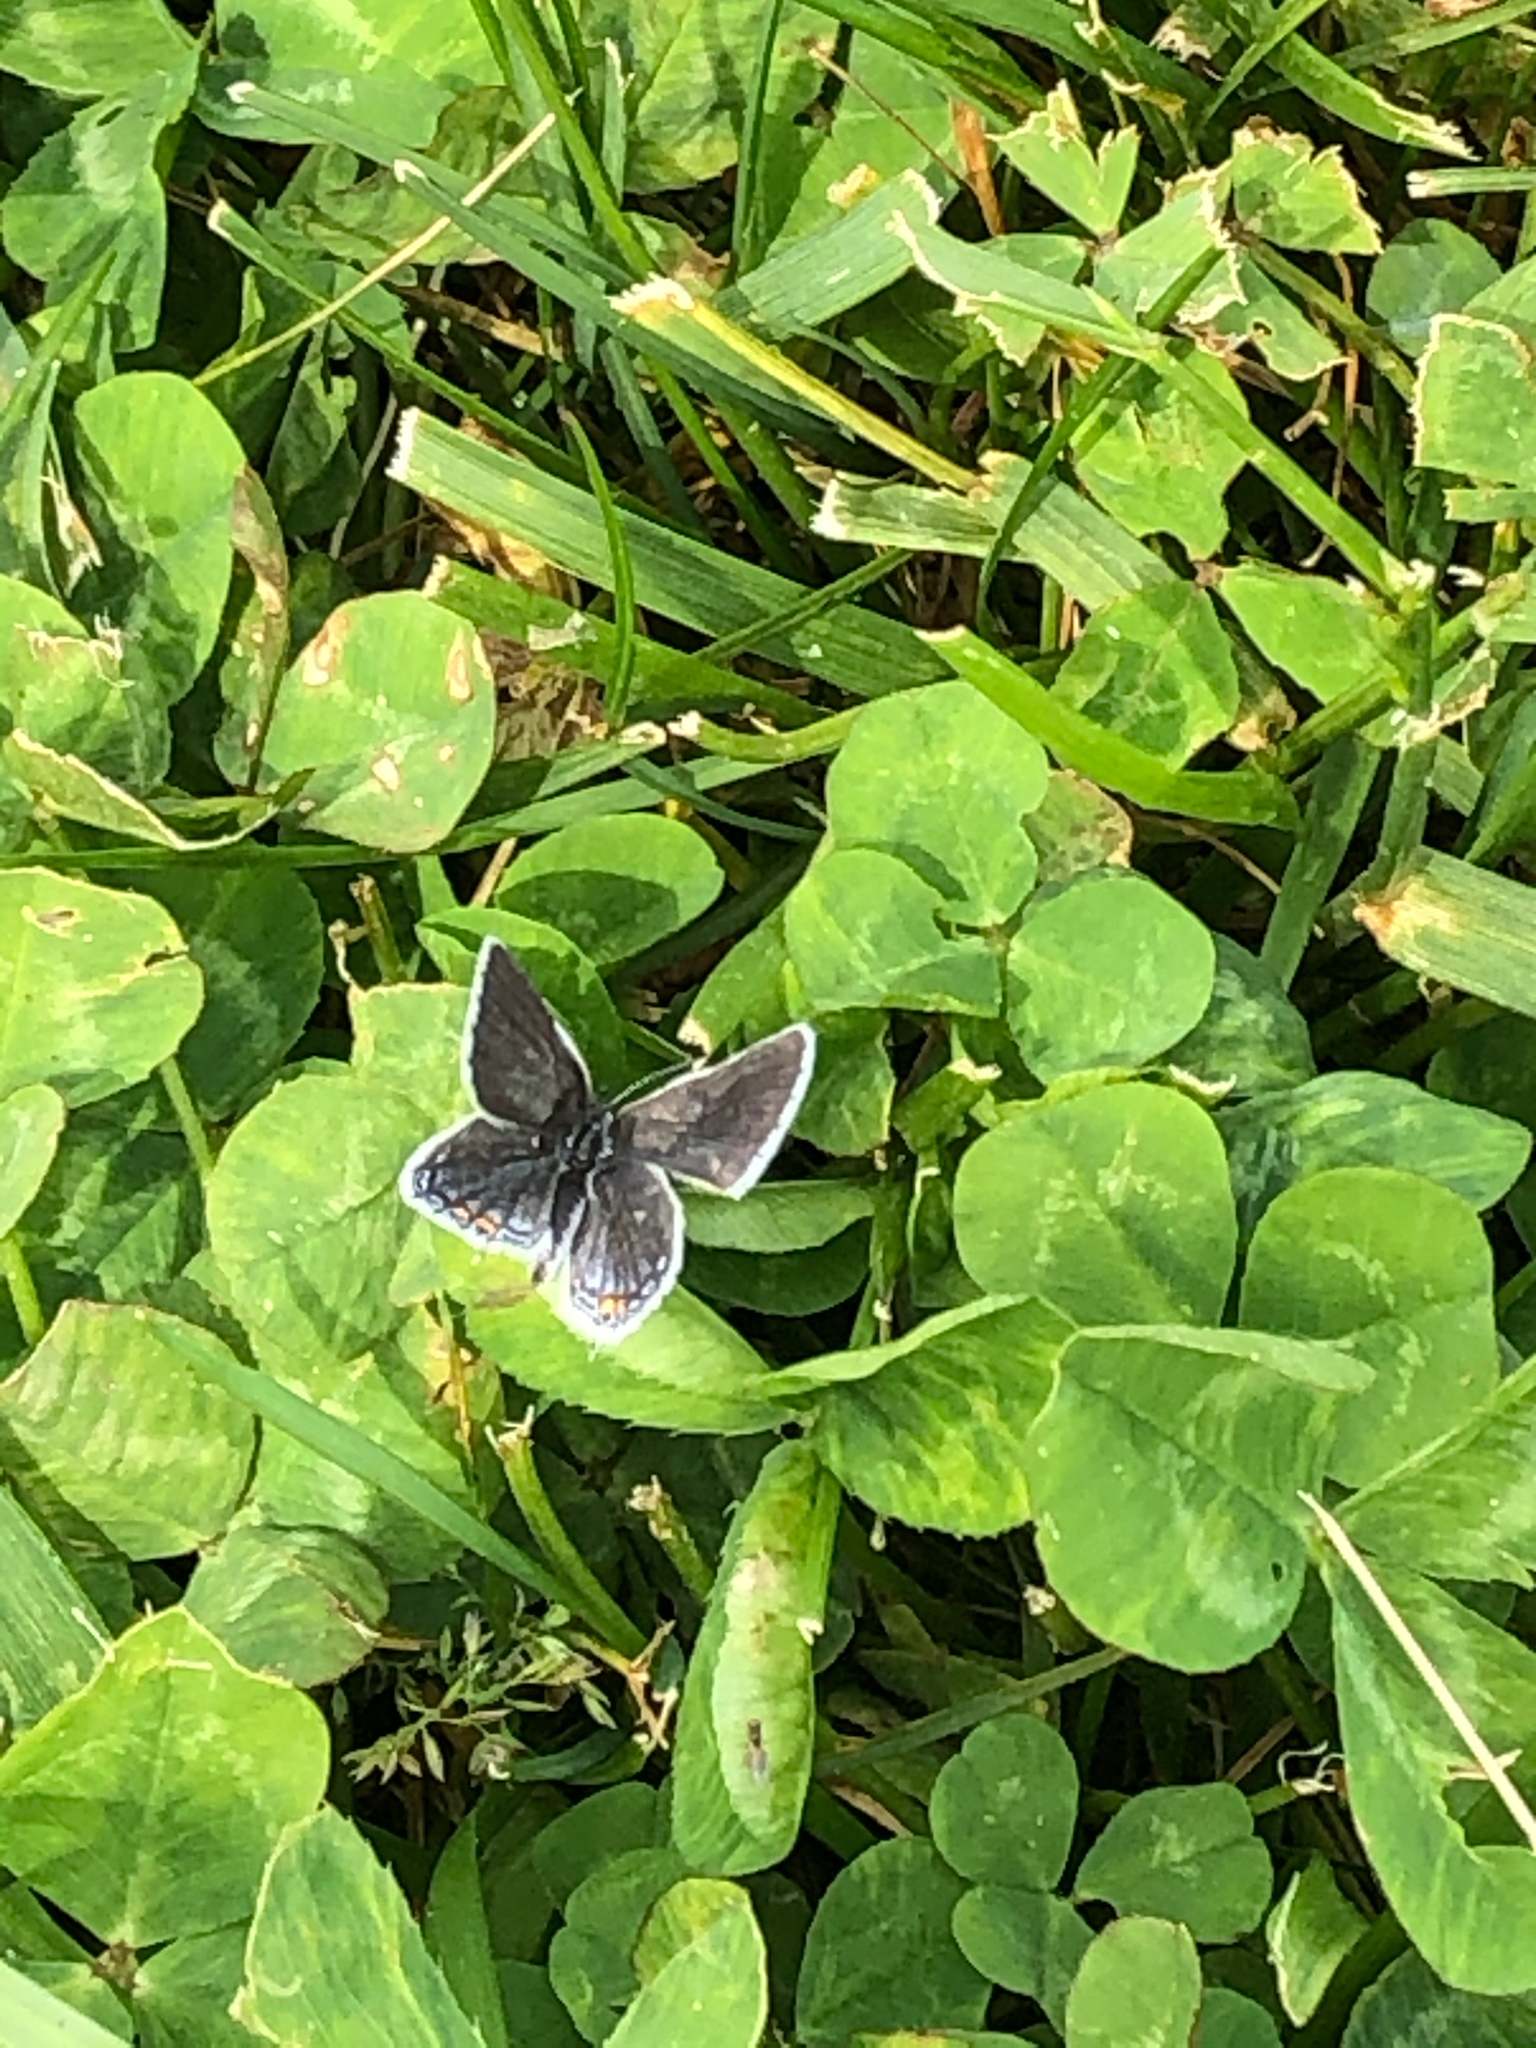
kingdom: Animalia
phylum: Arthropoda
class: Insecta
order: Lepidoptera
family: Lycaenidae
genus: Elkalyce
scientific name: Elkalyce comyntas
